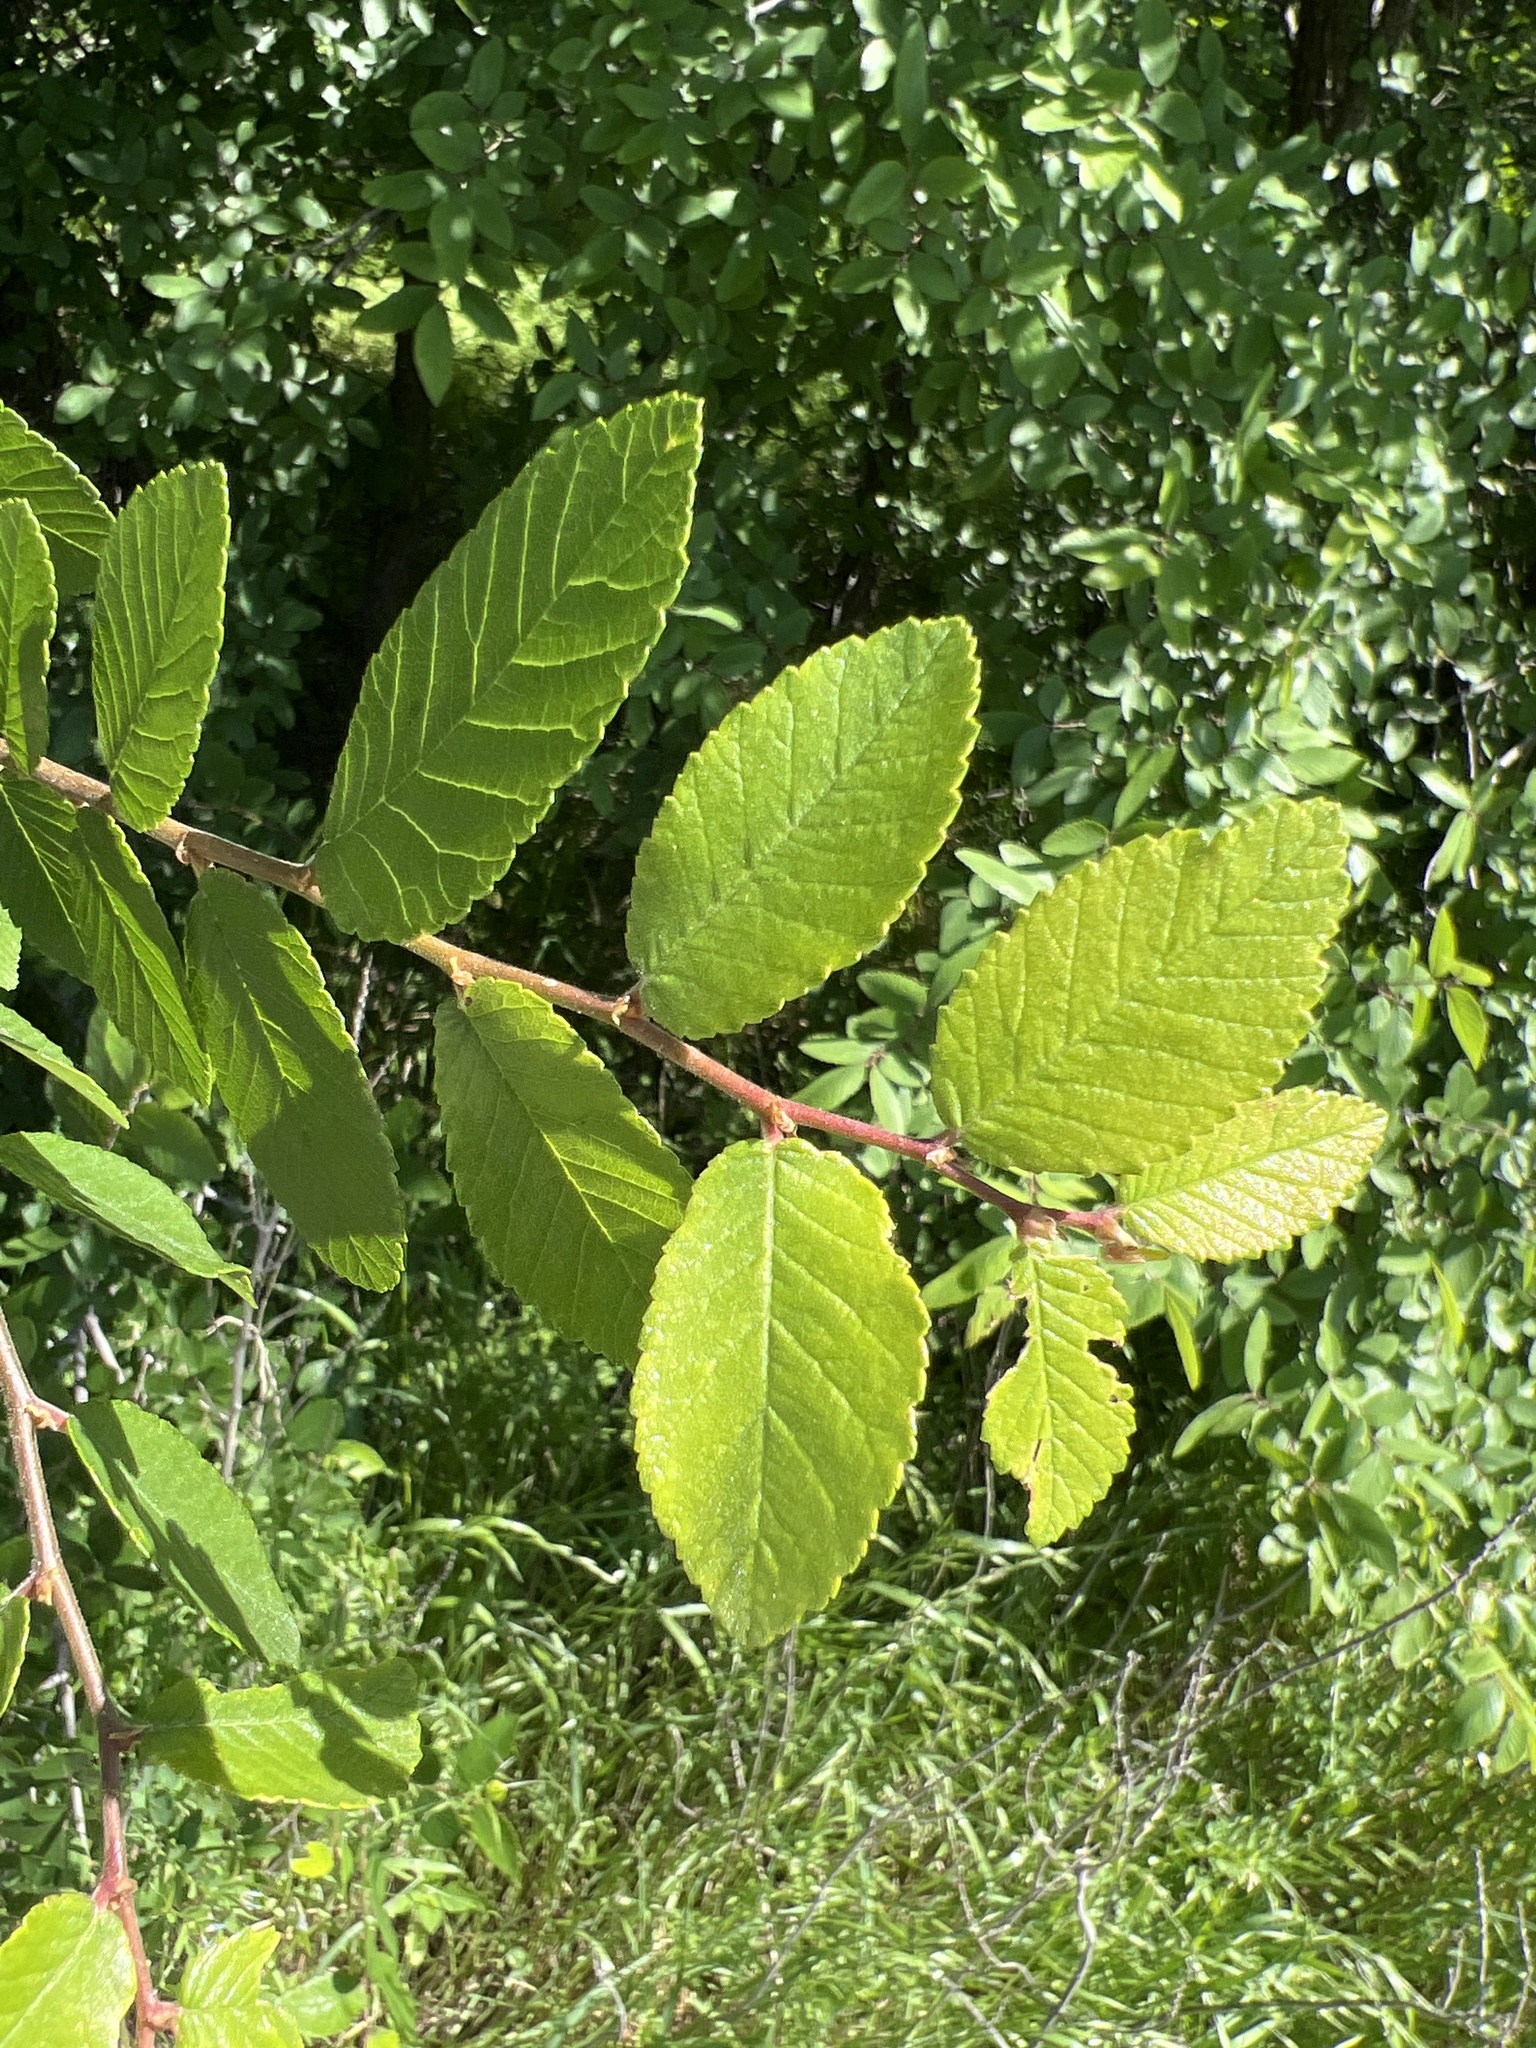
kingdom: Plantae
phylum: Tracheophyta
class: Magnoliopsida
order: Rosales
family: Ulmaceae
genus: Ulmus
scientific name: Ulmus crassifolia
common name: Basket elm
